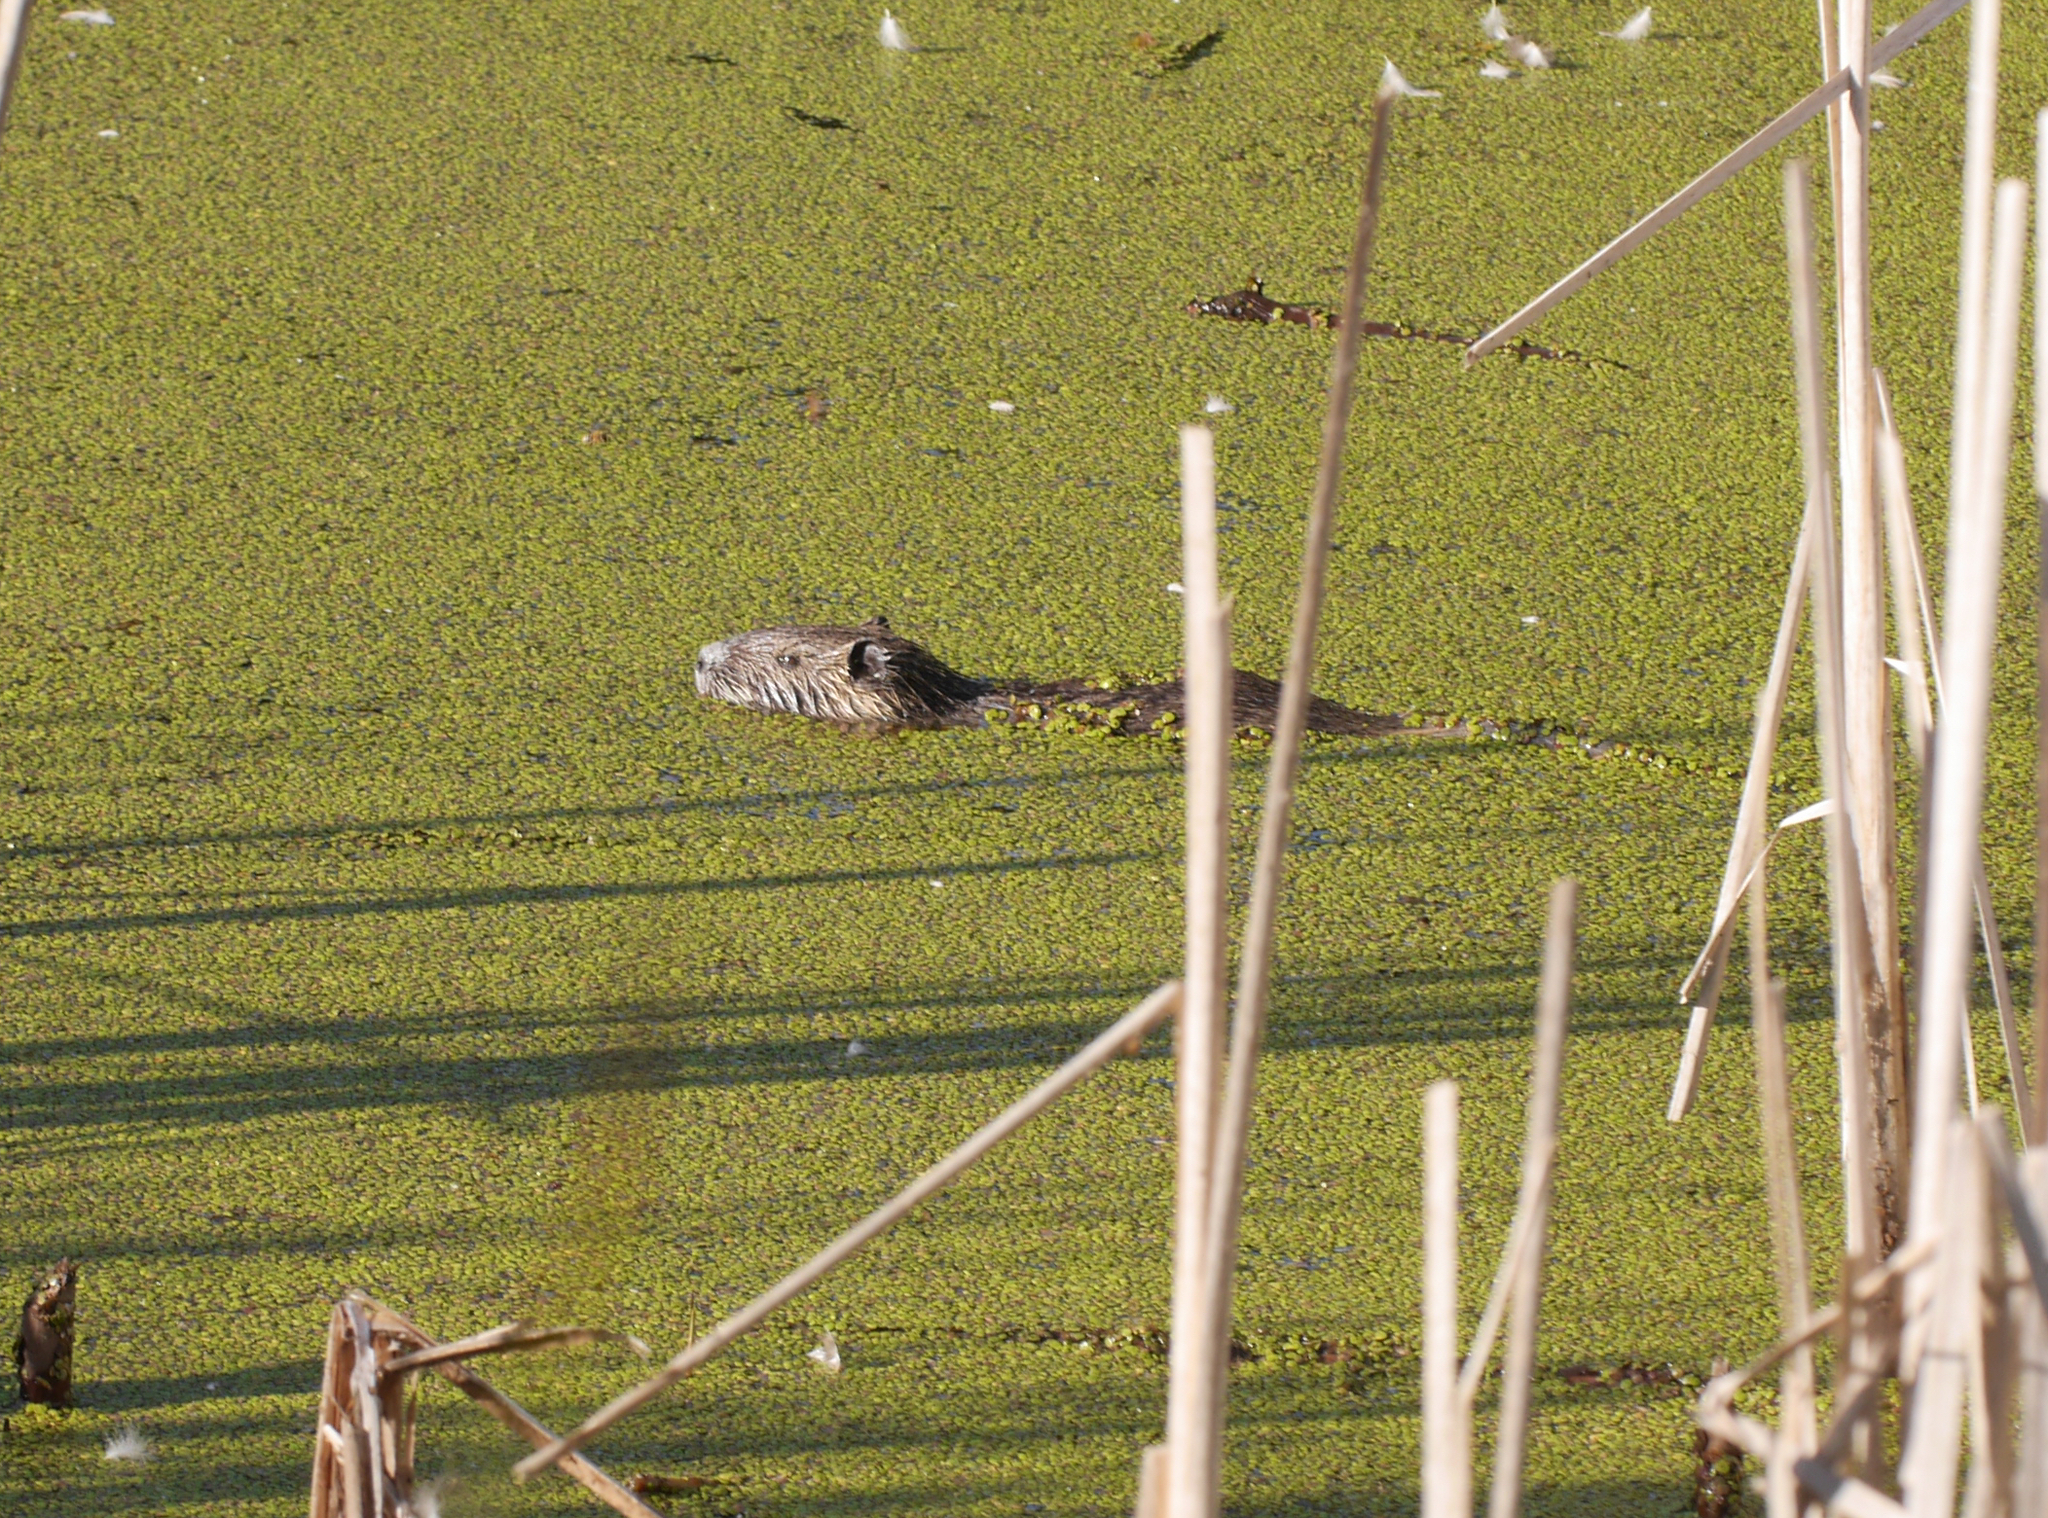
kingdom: Animalia
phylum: Chordata
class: Mammalia
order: Rodentia
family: Myocastoridae
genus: Myocastor
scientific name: Myocastor coypus
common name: Coypu
